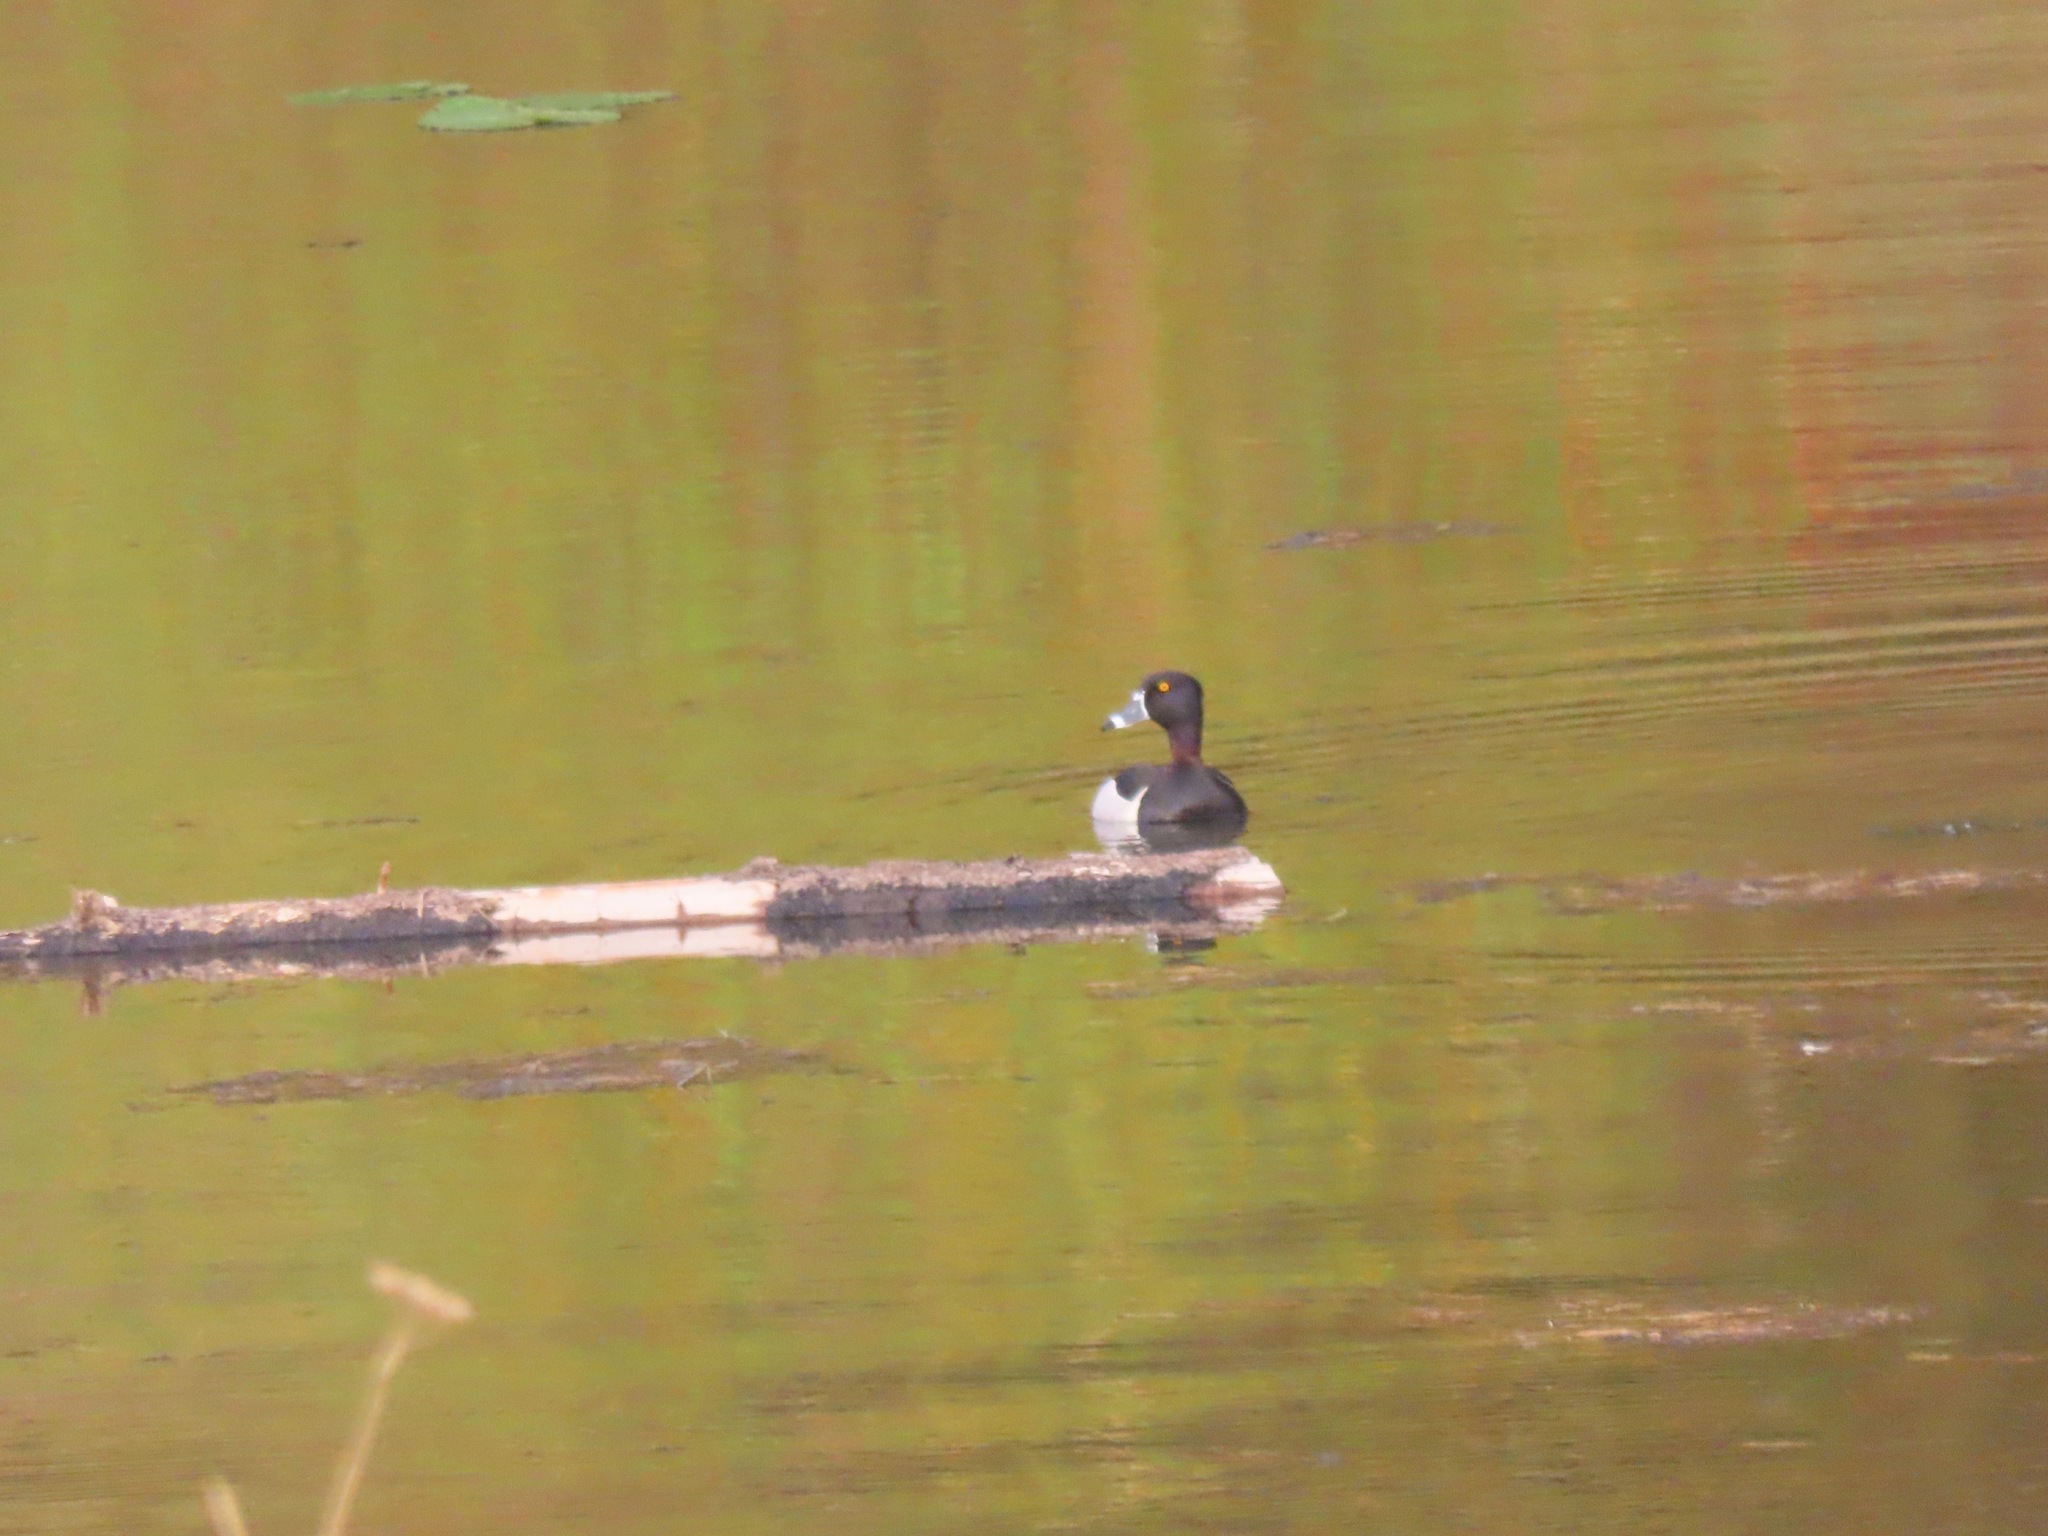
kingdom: Animalia
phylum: Chordata
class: Aves
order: Anseriformes
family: Anatidae
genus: Aythya
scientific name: Aythya collaris
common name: Ring-necked duck
